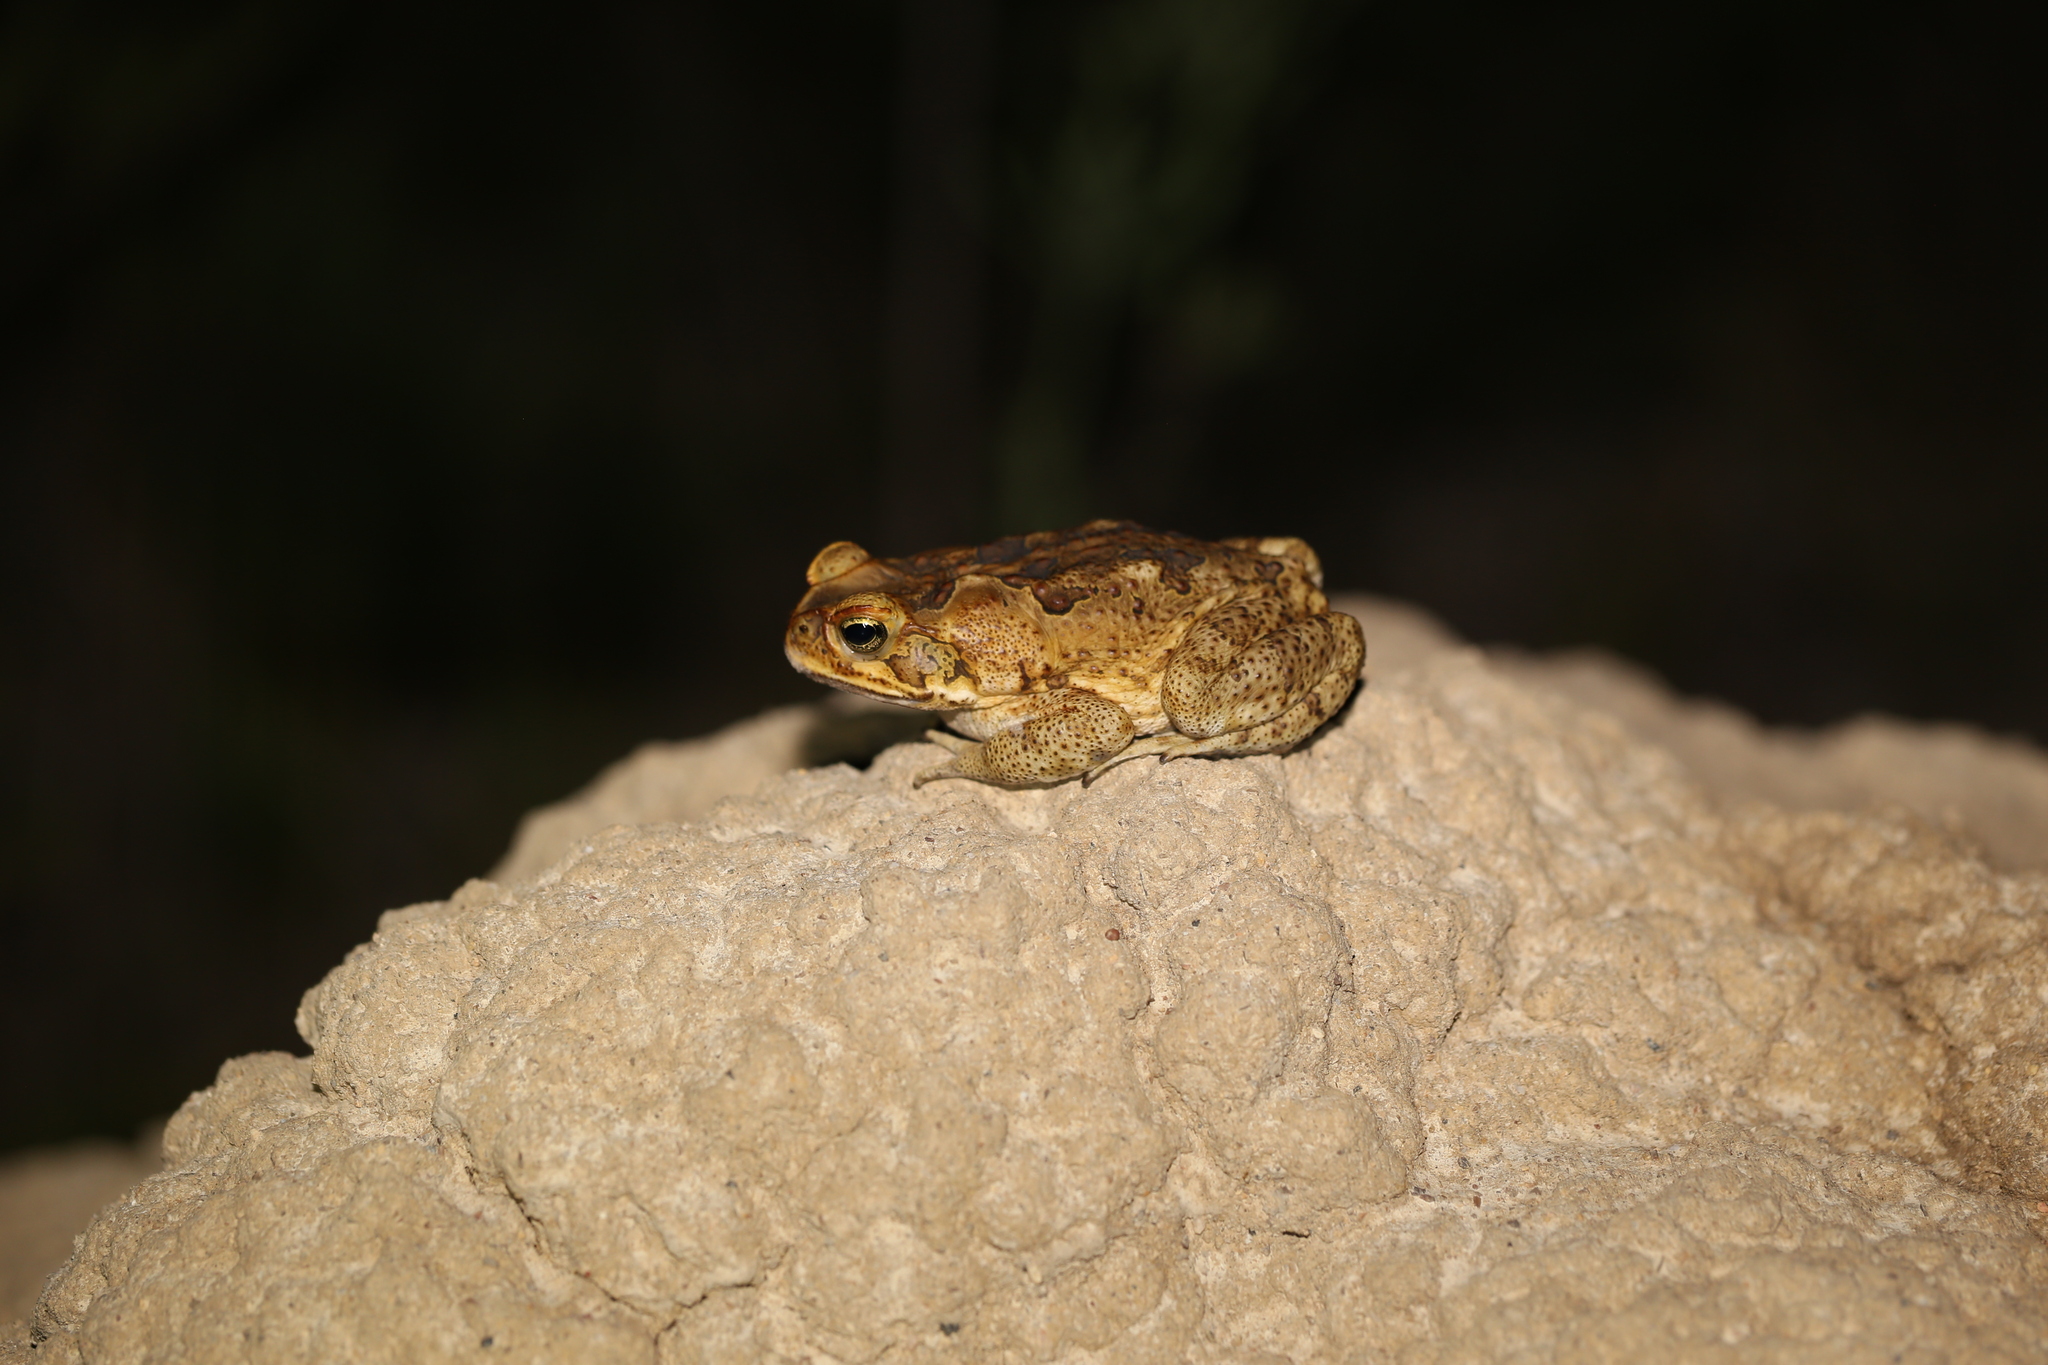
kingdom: Animalia
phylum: Chordata
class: Amphibia
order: Anura
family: Bufonidae
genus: Rhinella
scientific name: Rhinella marina
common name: Cane toad
